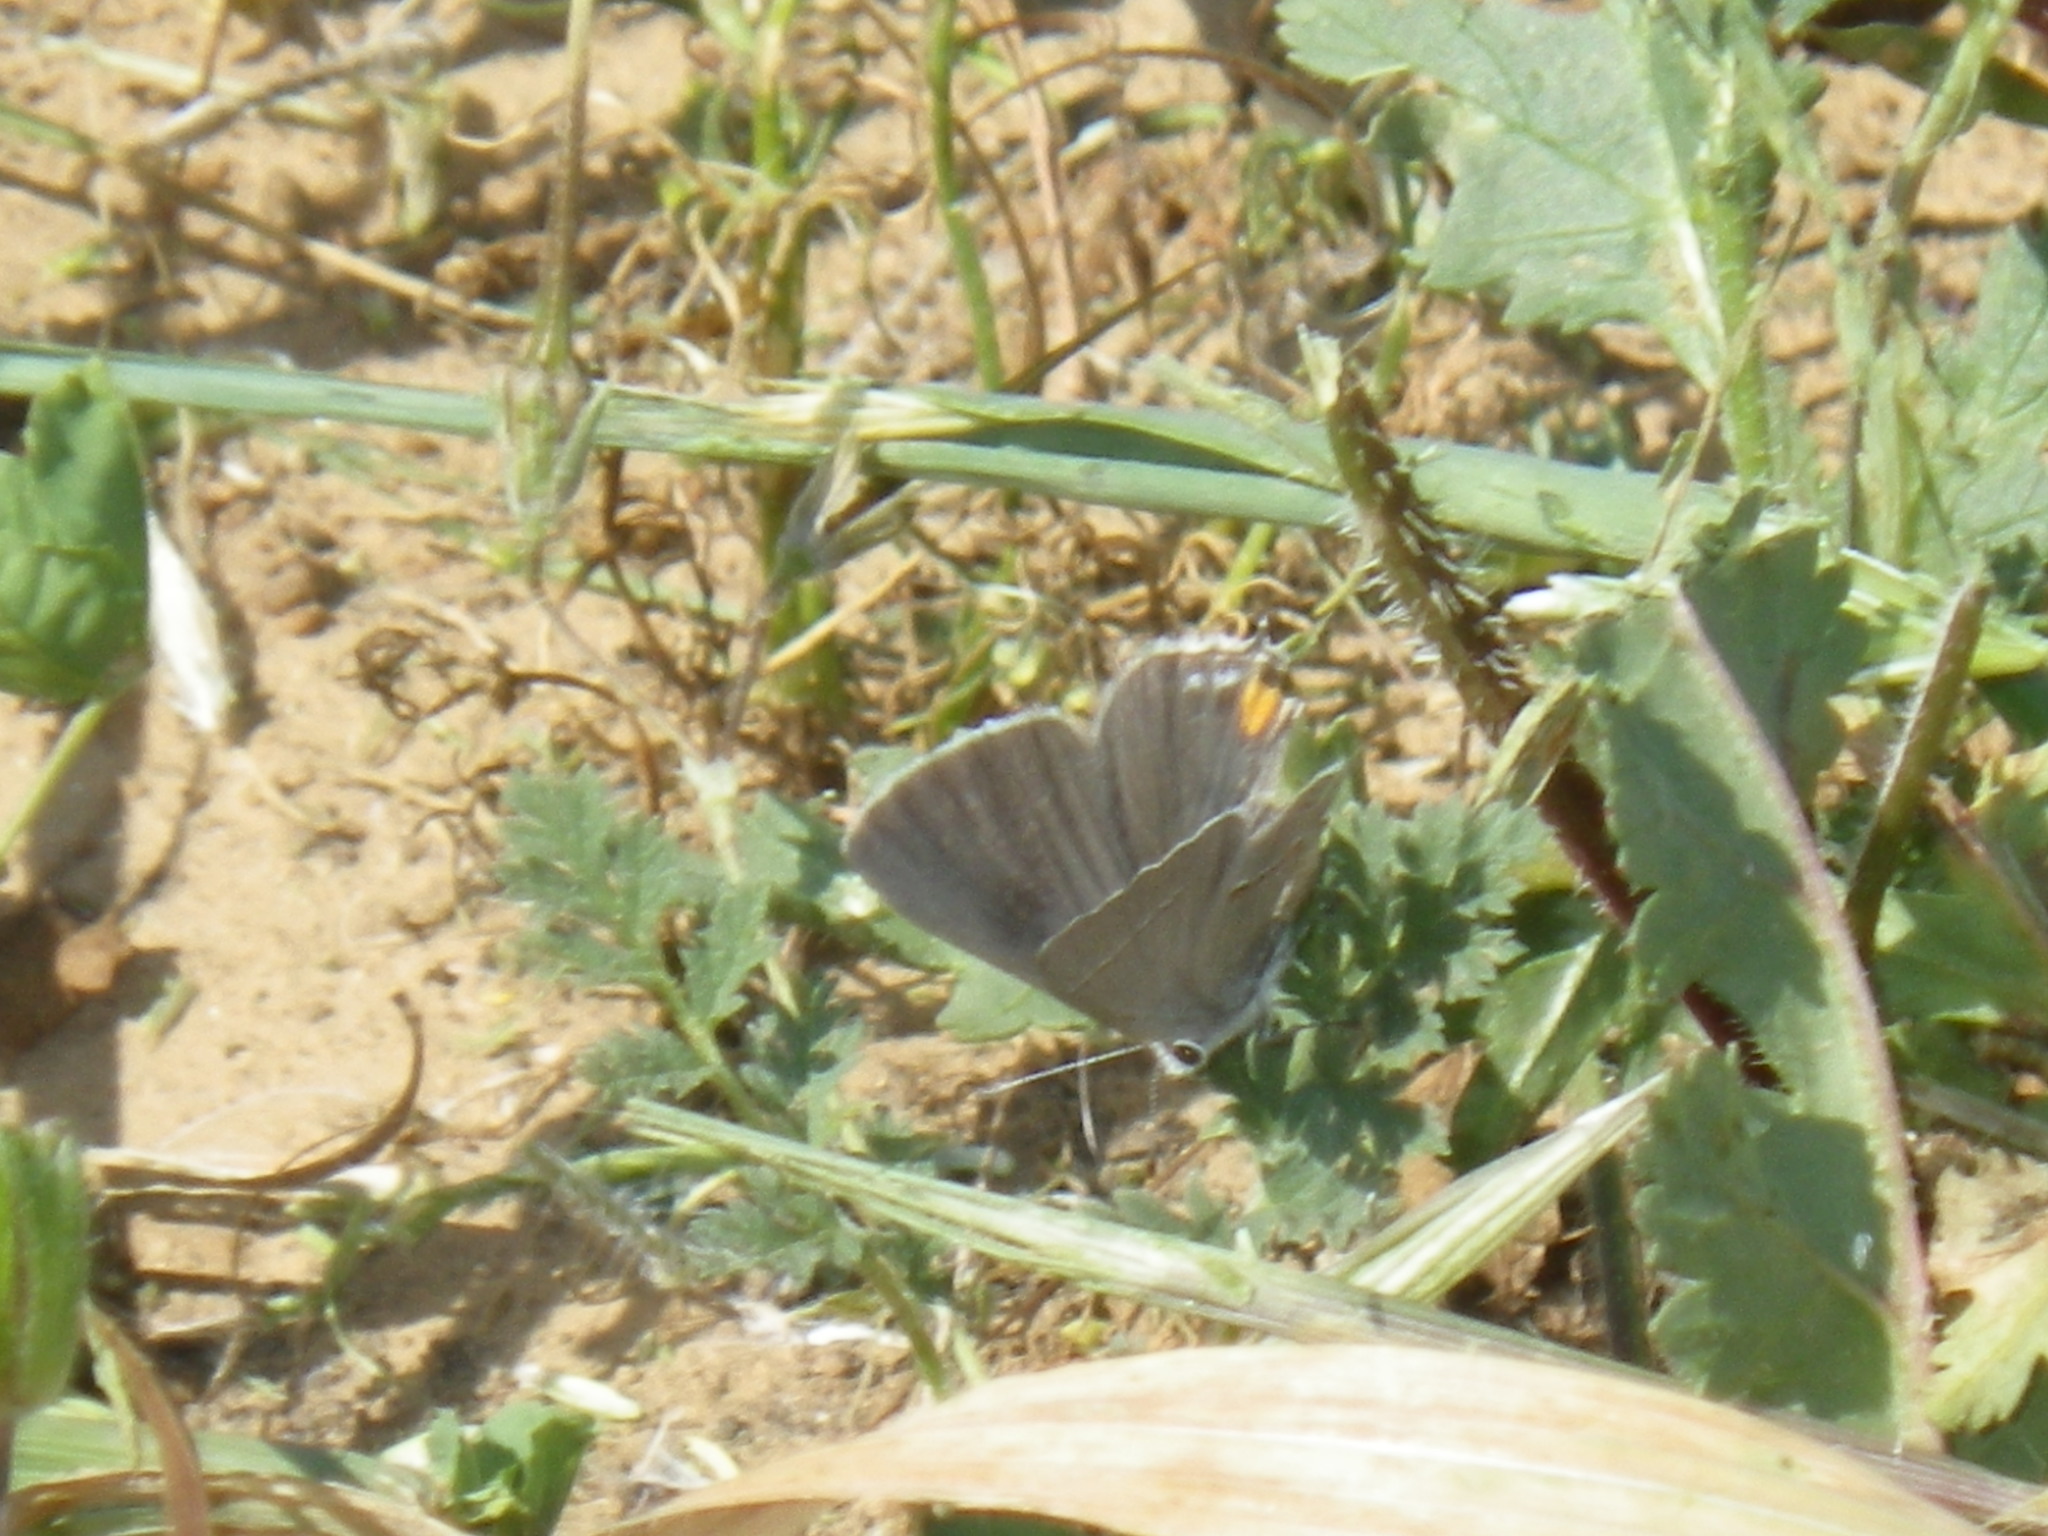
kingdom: Animalia
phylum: Arthropoda
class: Insecta
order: Lepidoptera
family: Lycaenidae
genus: Strymon
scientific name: Strymon melinus
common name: Gray hairstreak
